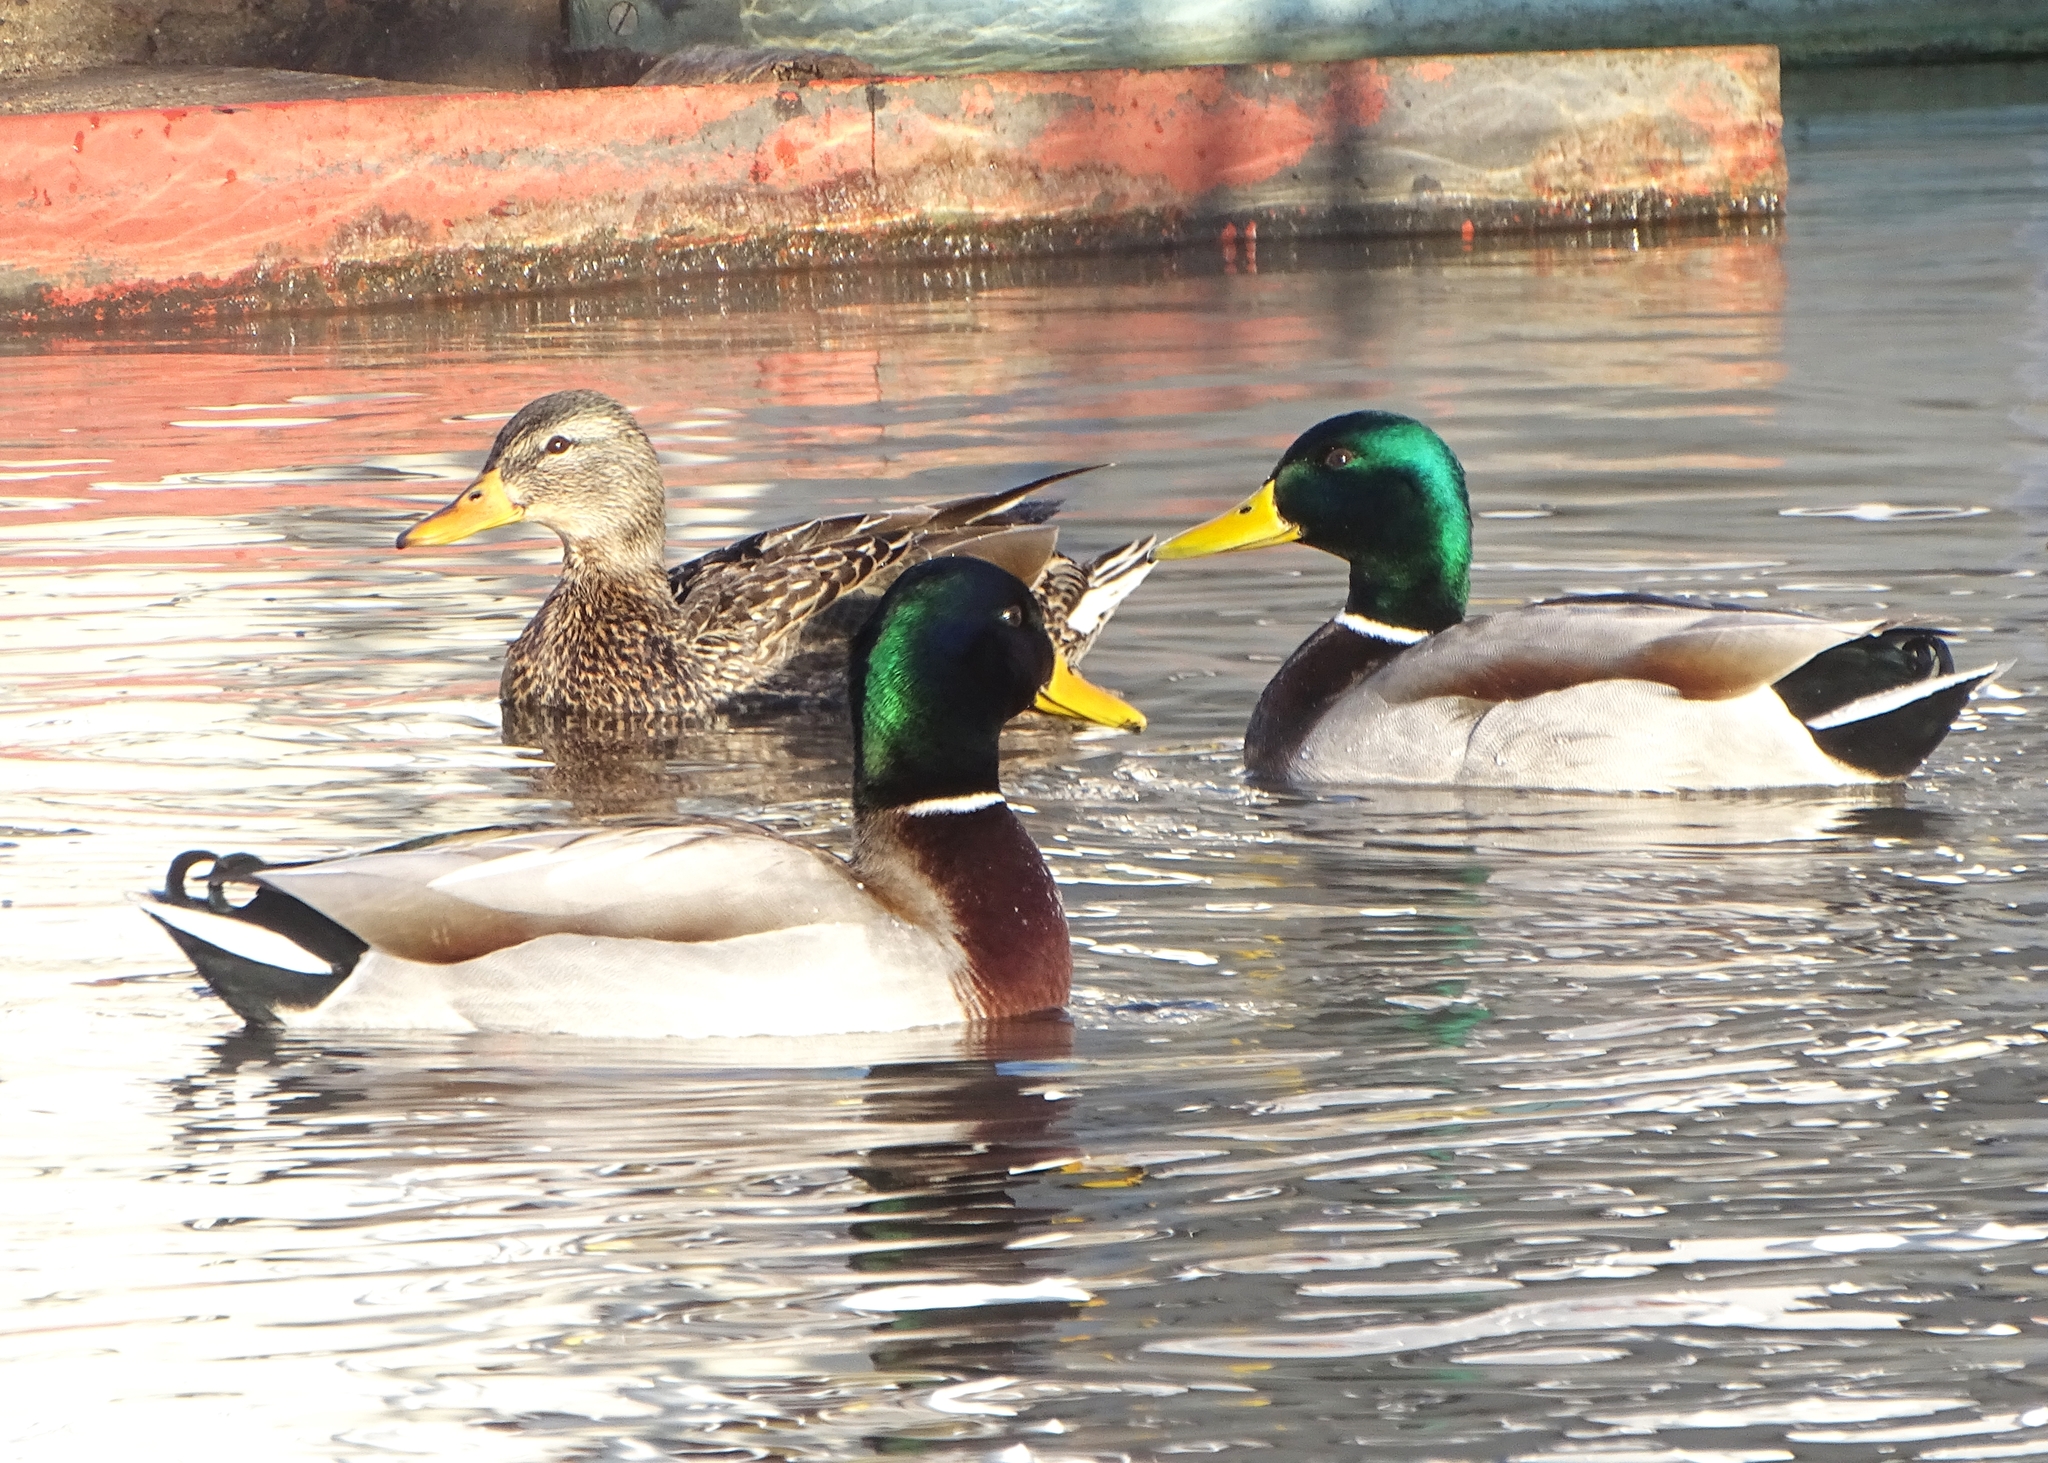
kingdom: Animalia
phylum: Chordata
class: Aves
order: Anseriformes
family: Anatidae
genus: Anas
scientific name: Anas platyrhynchos
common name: Mallard
